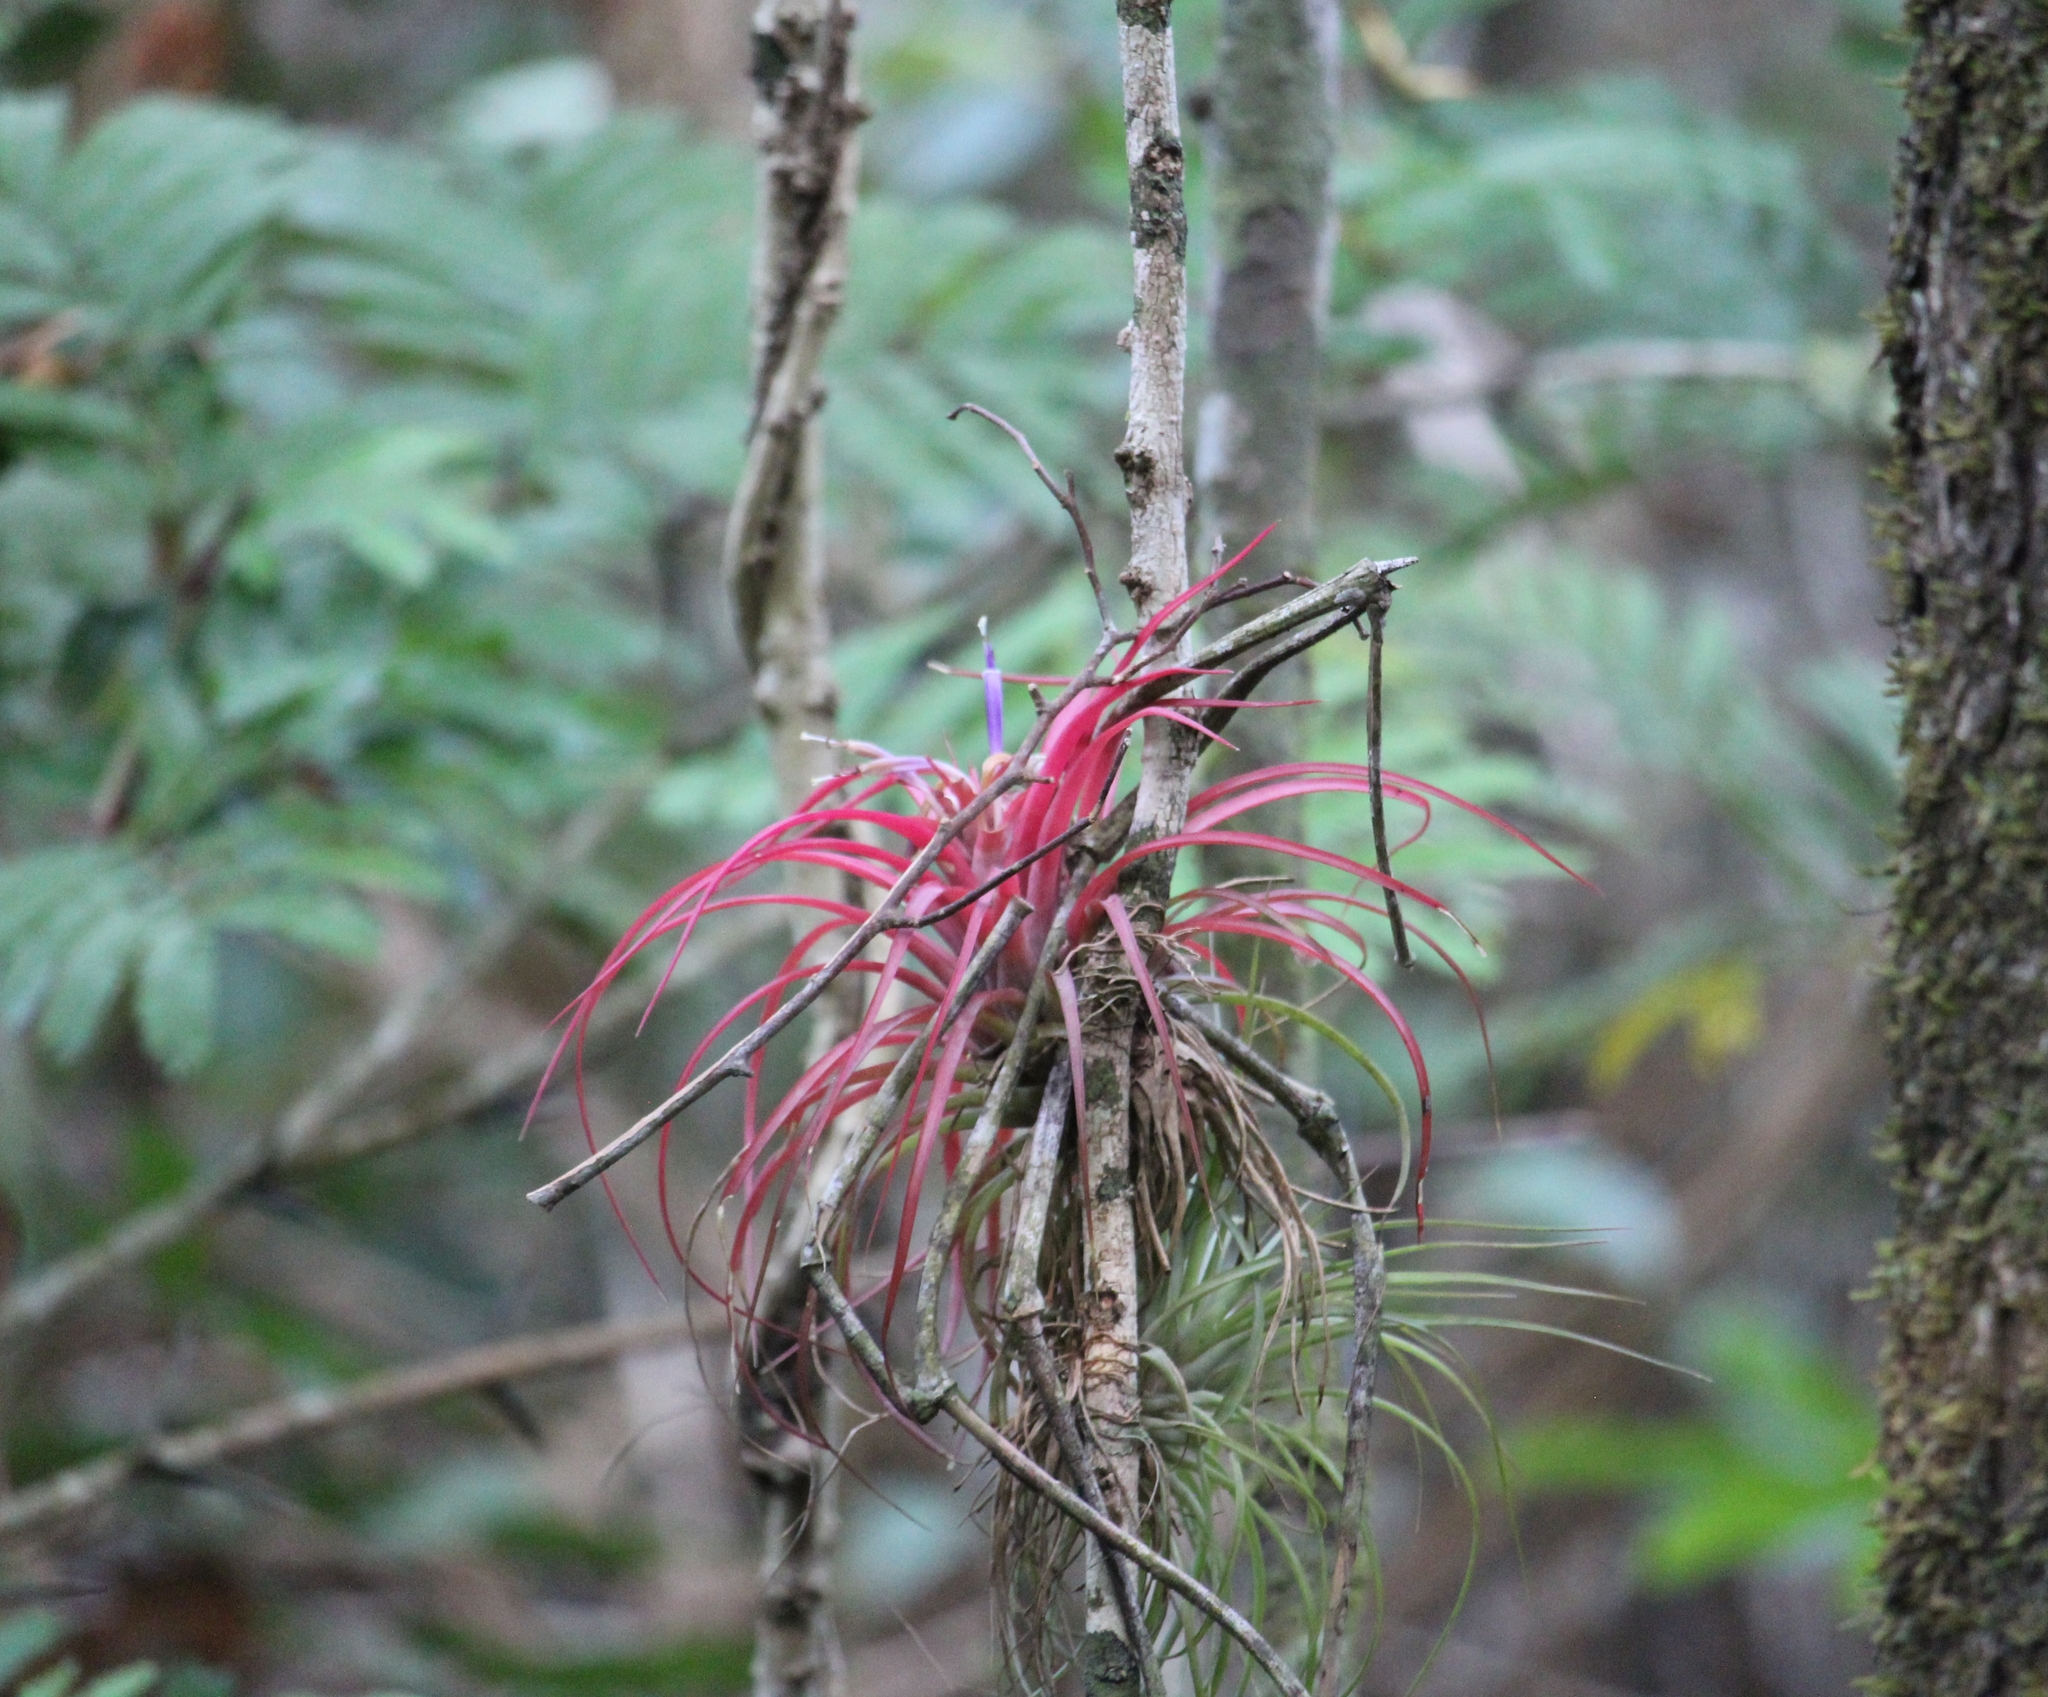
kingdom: Plantae
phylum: Tracheophyta
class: Liliopsida
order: Poales
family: Bromeliaceae
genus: Tillandsia
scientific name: Tillandsia brachycaulos
